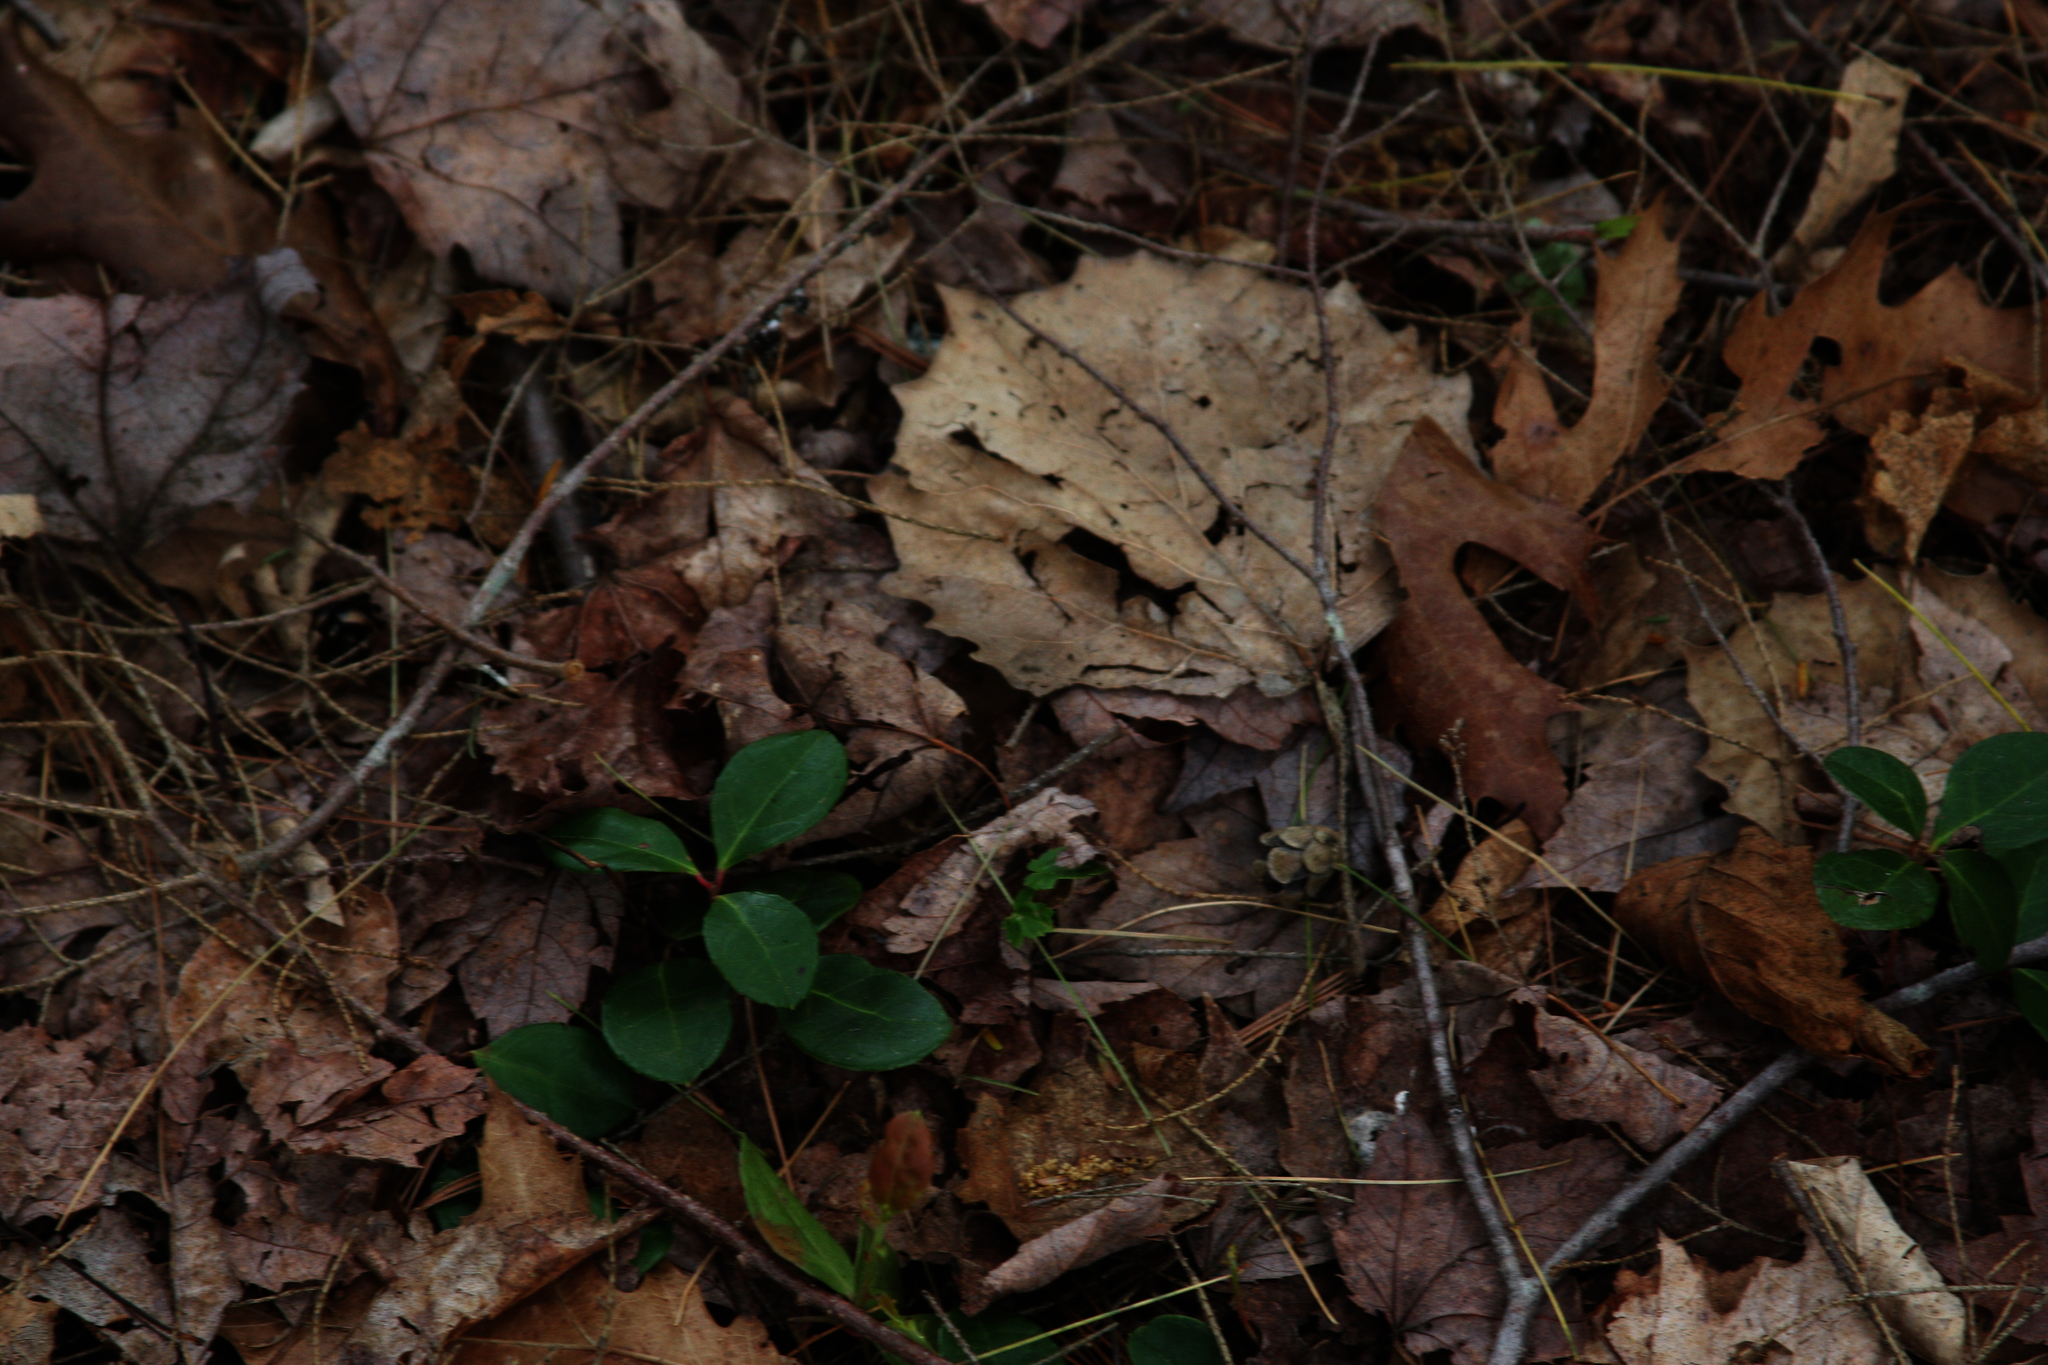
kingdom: Plantae
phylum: Tracheophyta
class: Magnoliopsida
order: Ericales
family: Ericaceae
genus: Gaultheria
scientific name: Gaultheria procumbens
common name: Checkerberry
